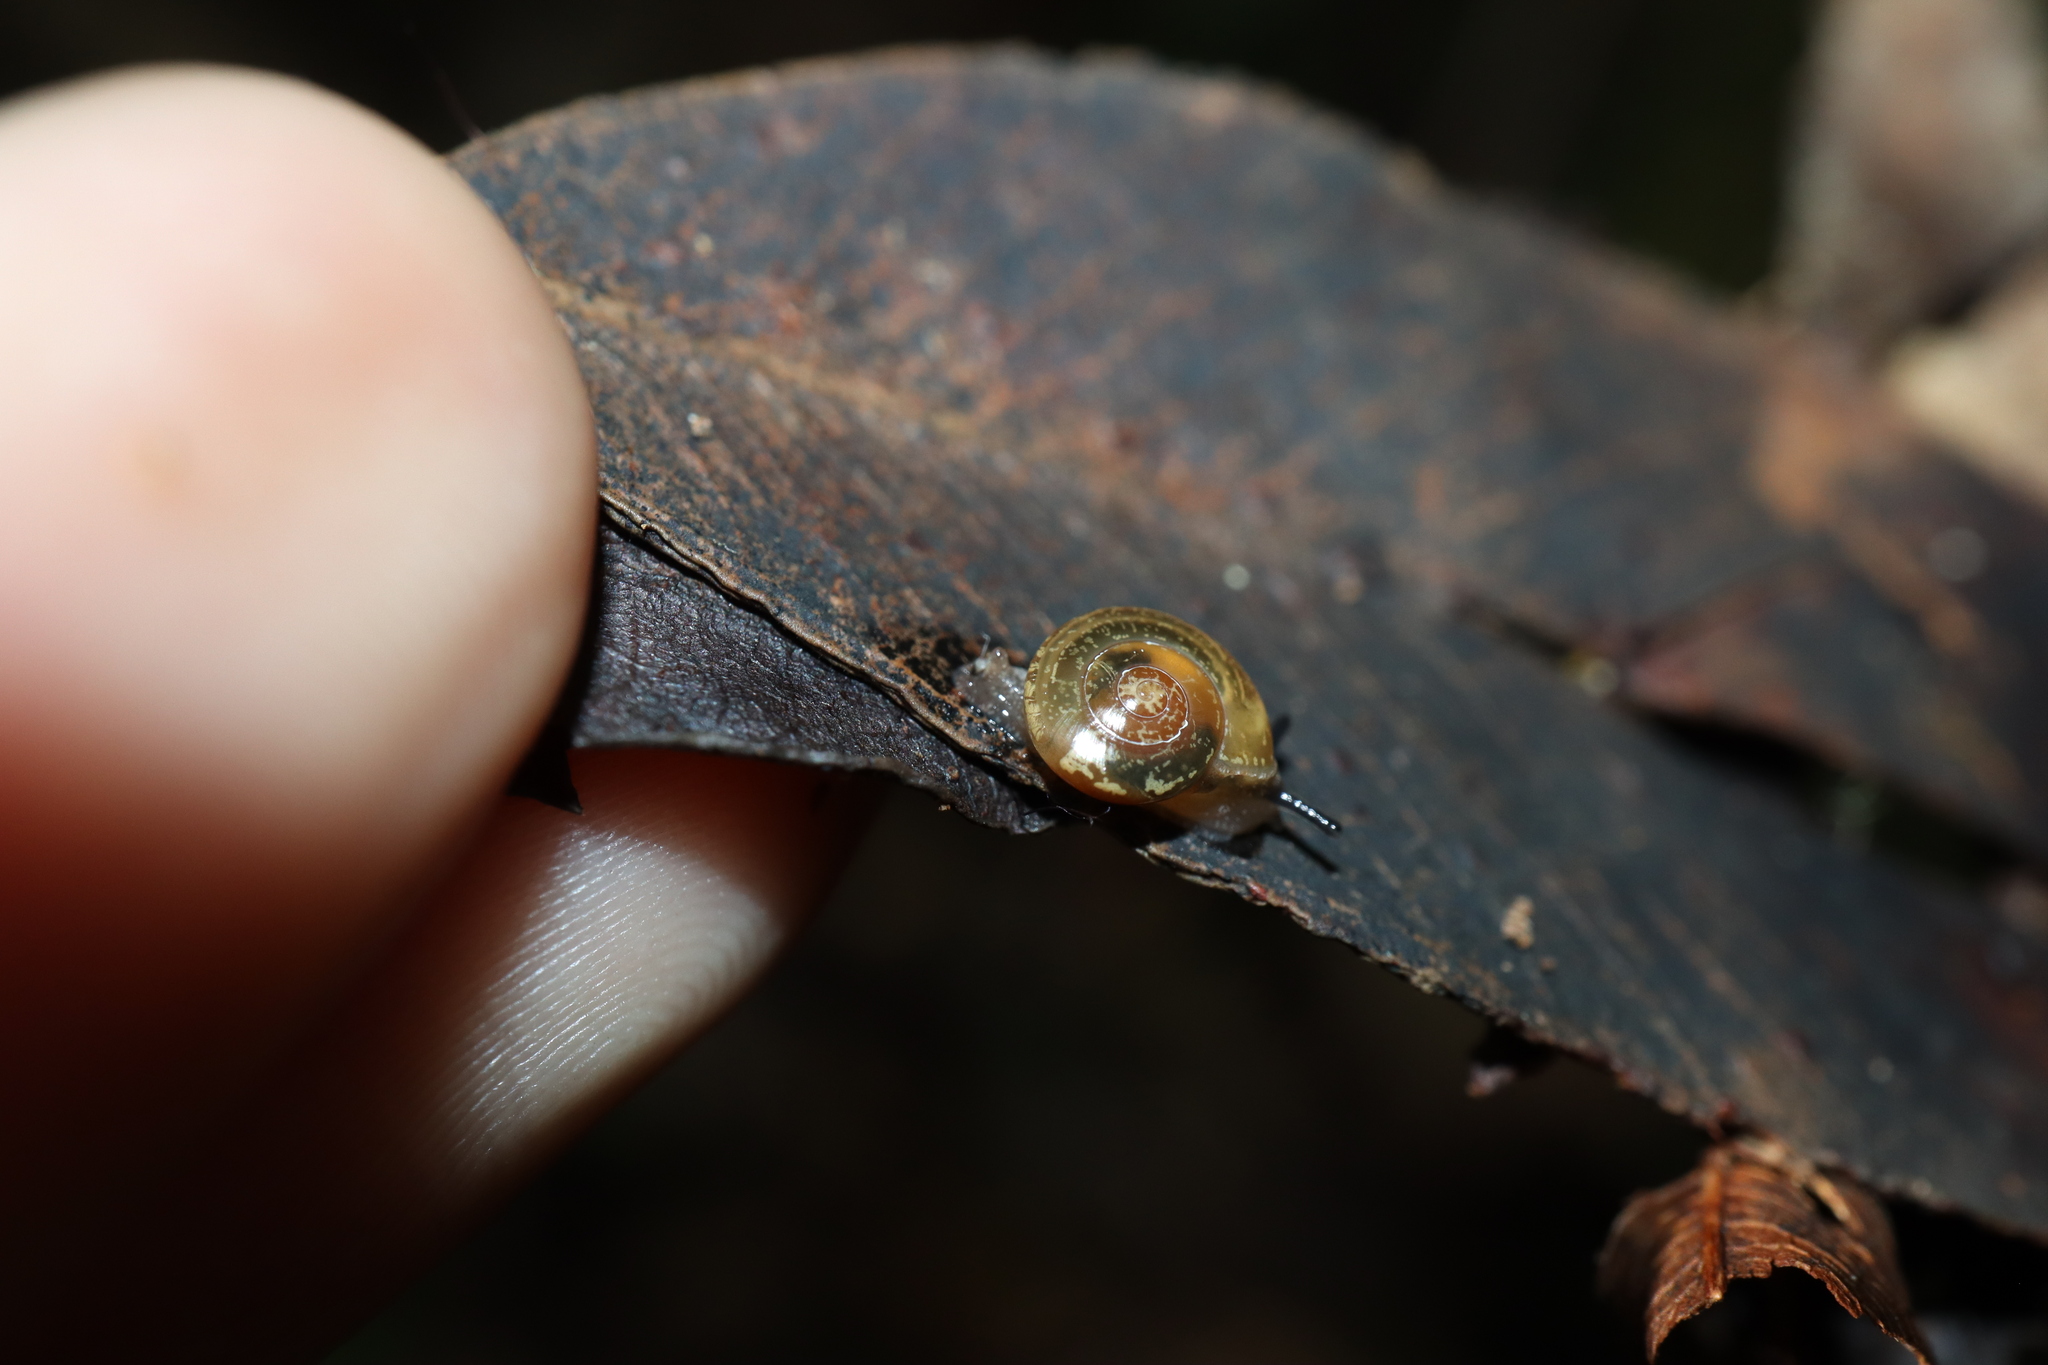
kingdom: Animalia
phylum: Mollusca
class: Gastropoda
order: Stylommatophora
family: Helicarionidae
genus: Nitor
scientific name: Nitor sheai
